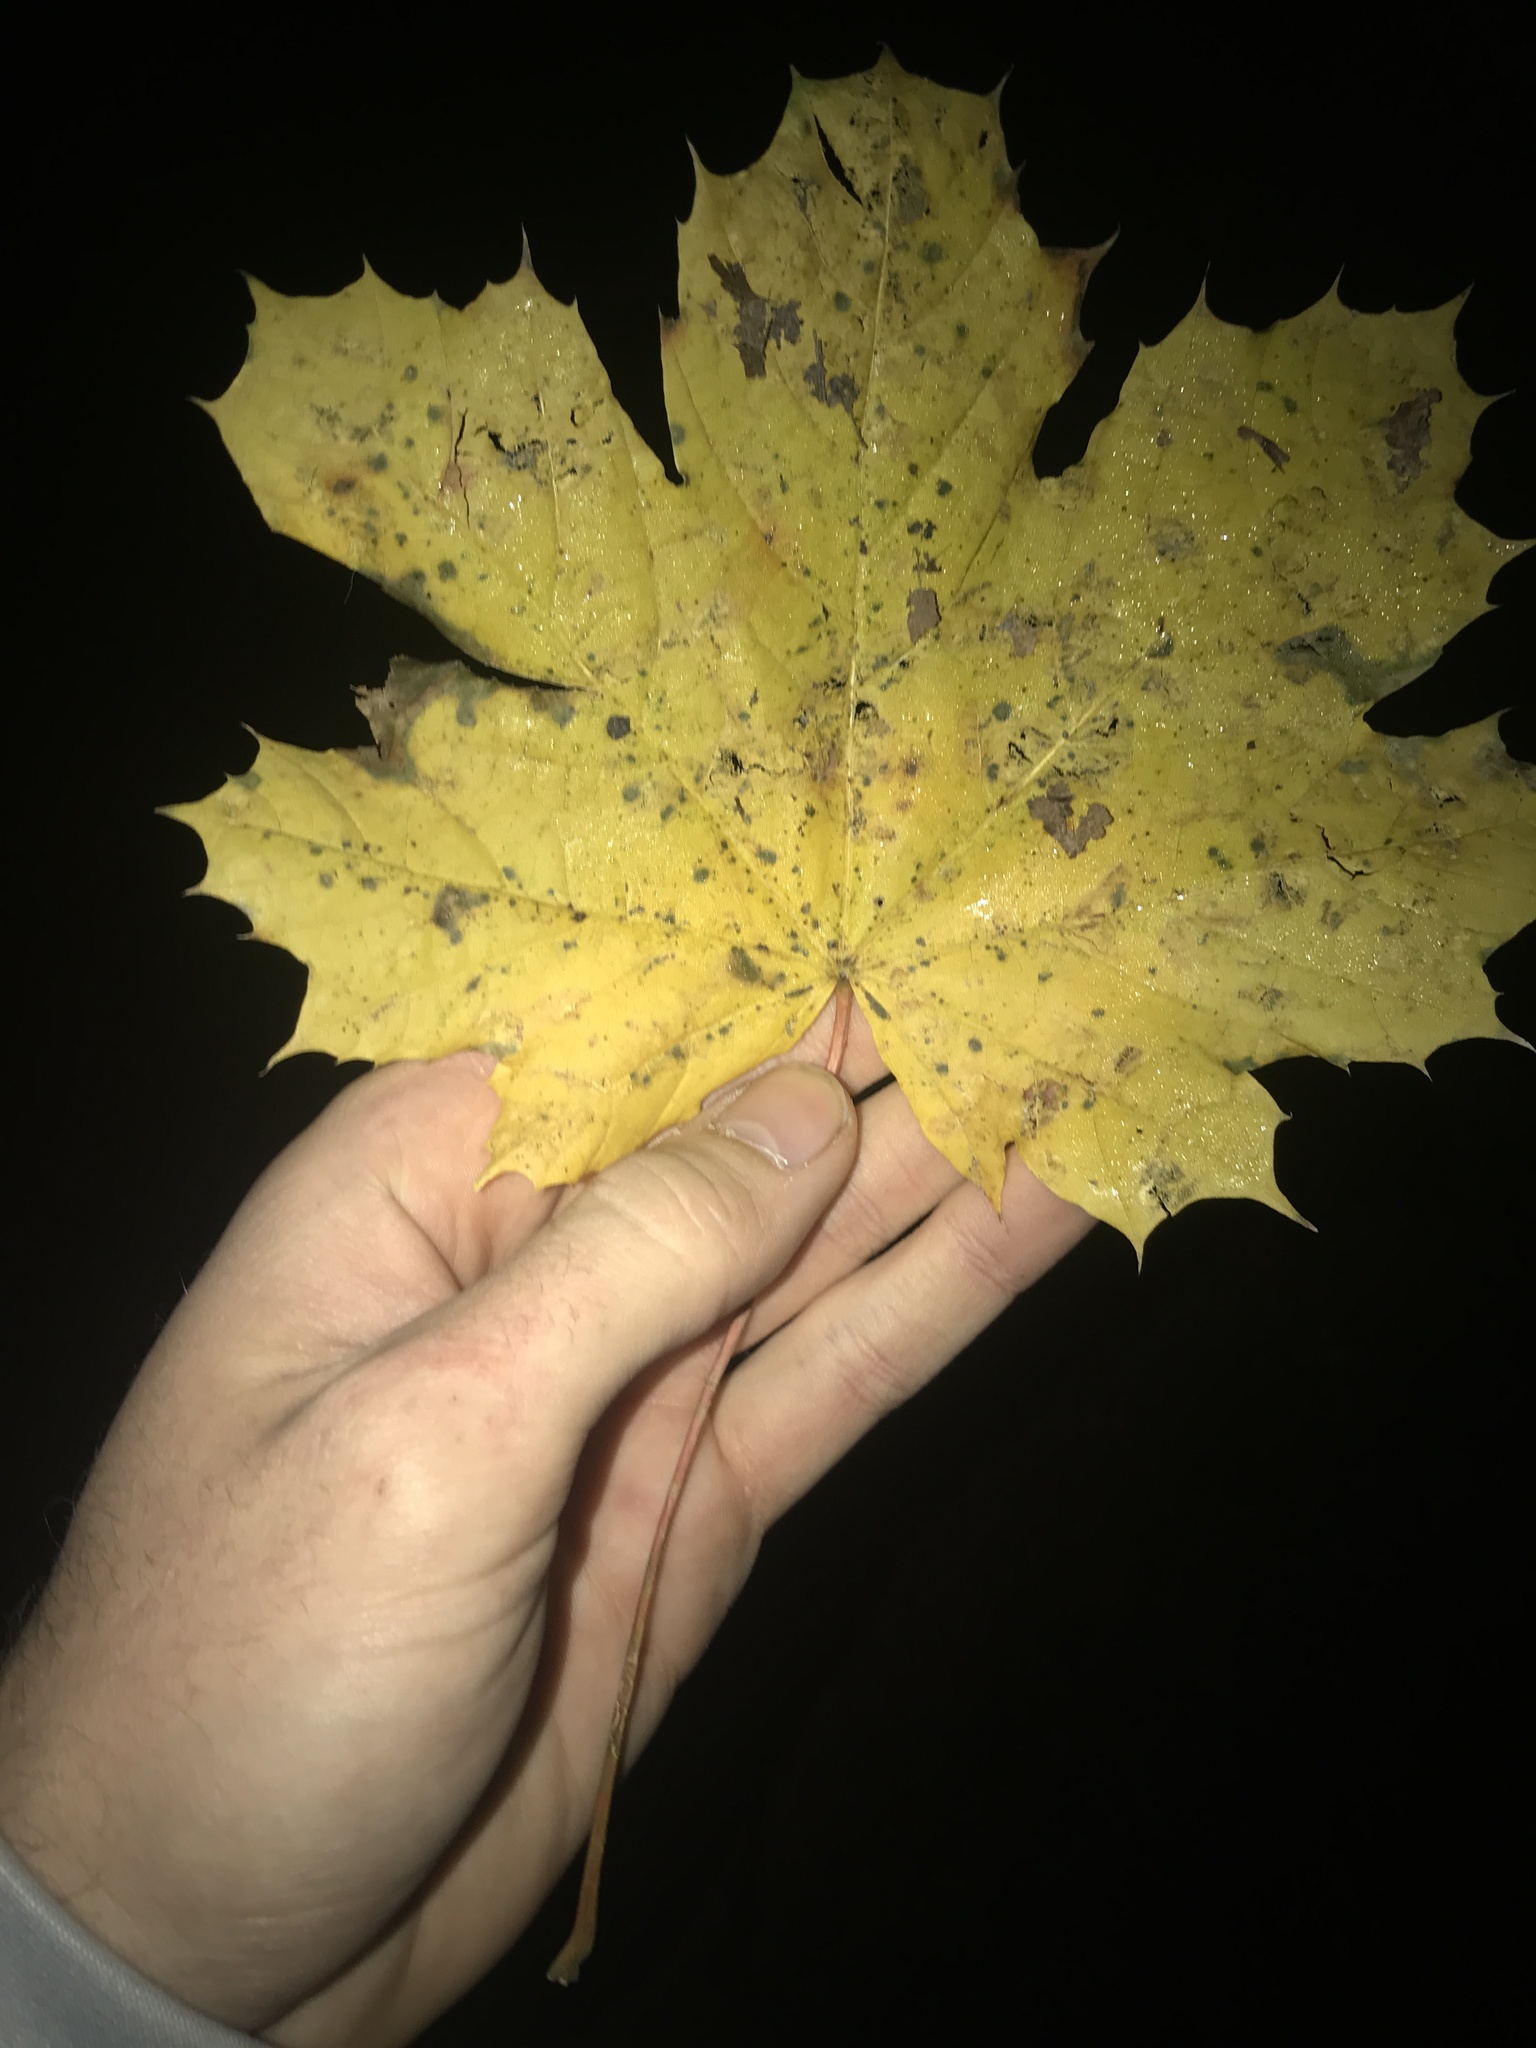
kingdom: Plantae
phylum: Tracheophyta
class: Magnoliopsida
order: Sapindales
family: Sapindaceae
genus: Acer
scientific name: Acer platanoides
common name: Norway maple
